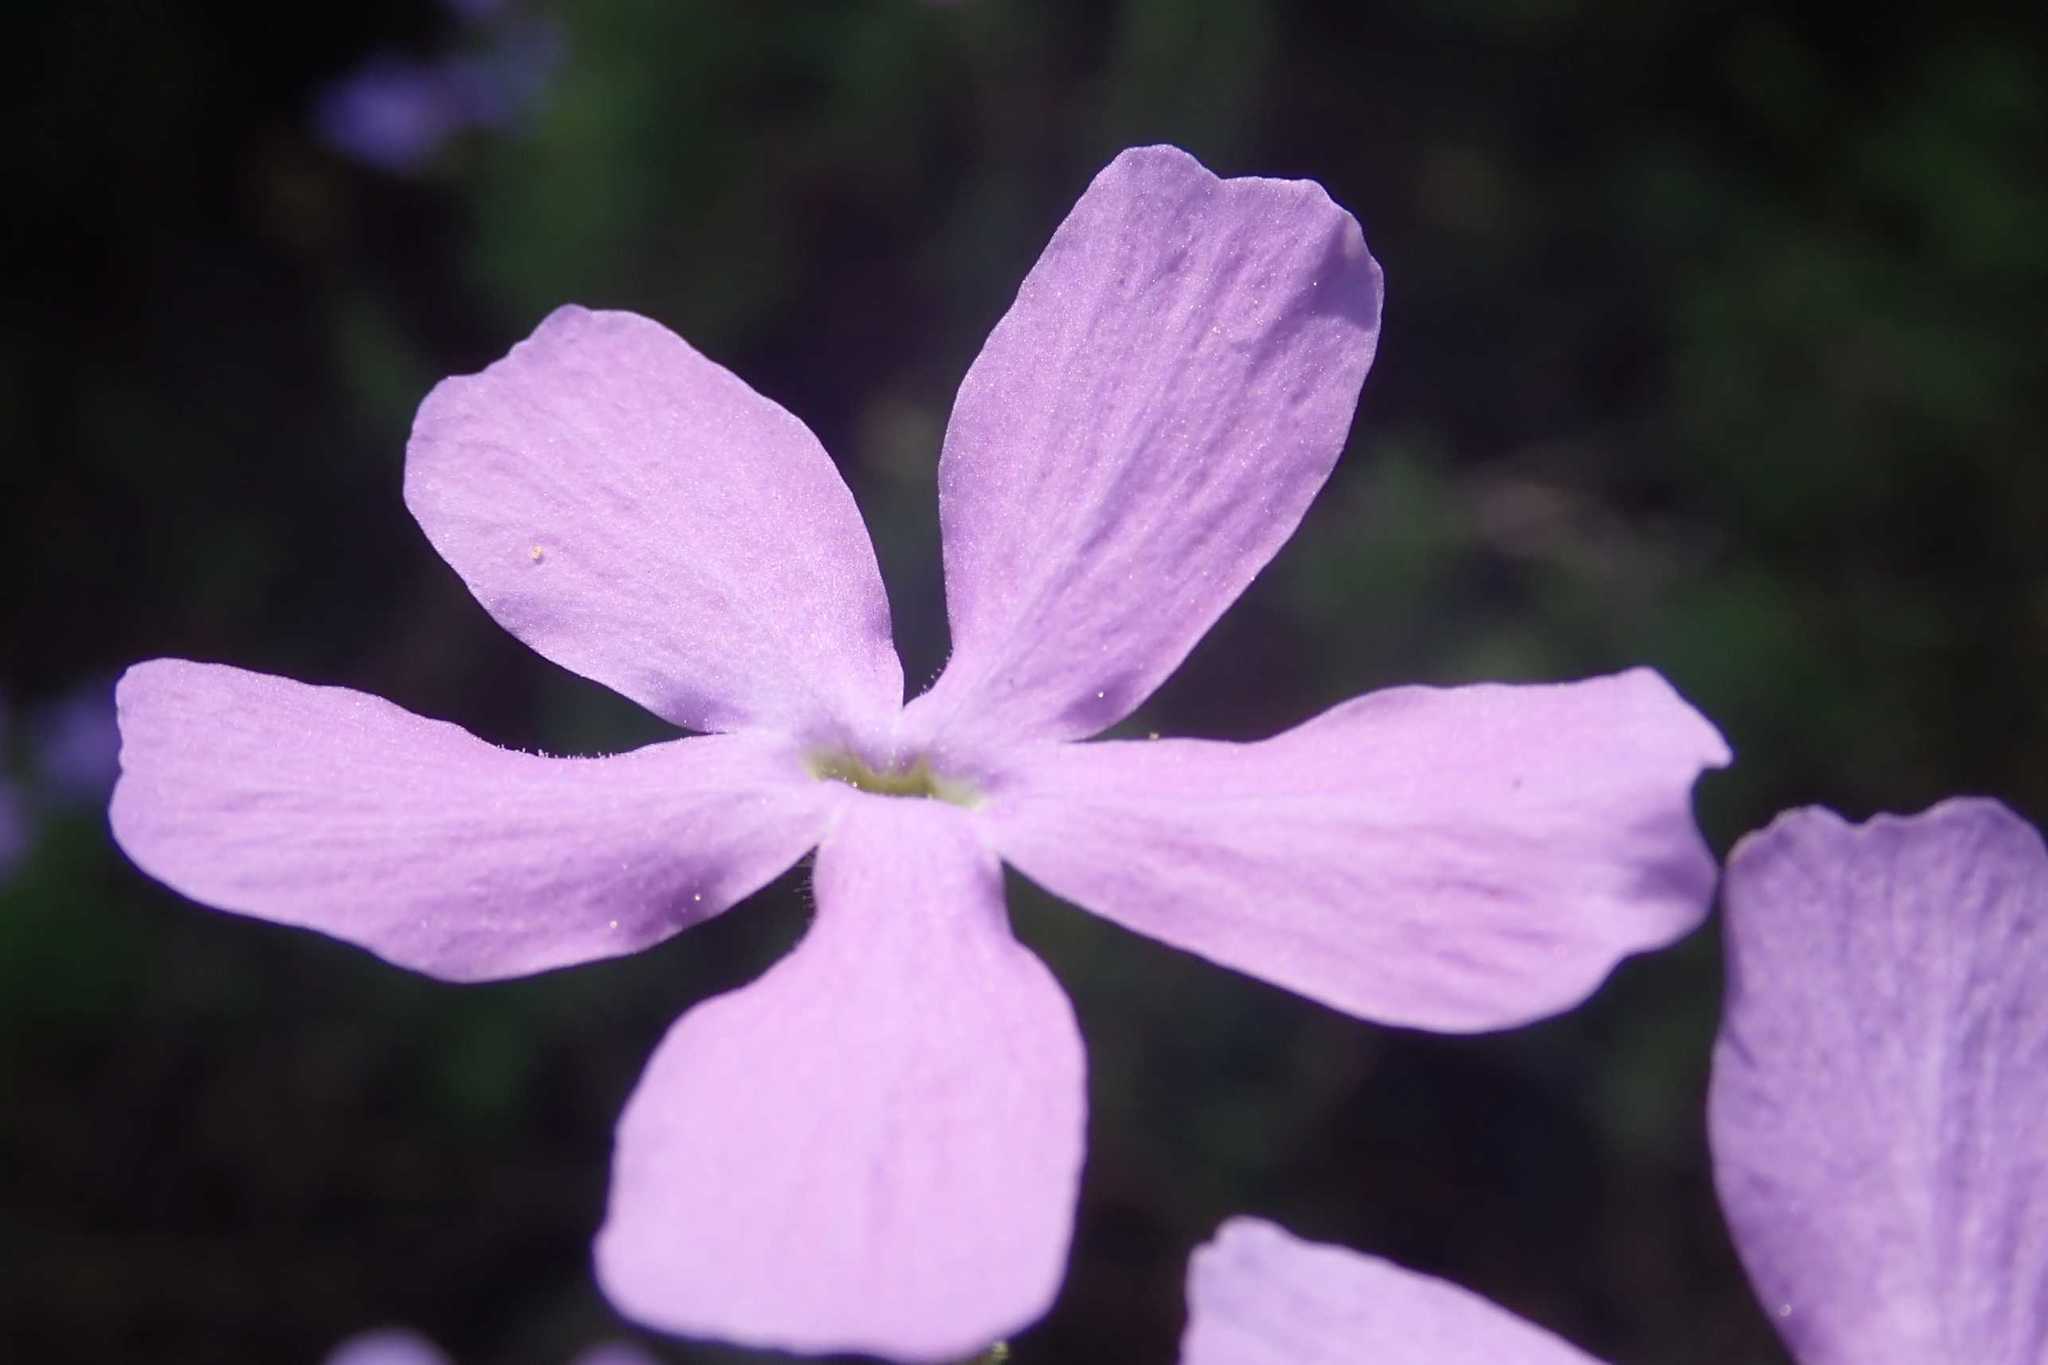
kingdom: Plantae
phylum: Tracheophyta
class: Magnoliopsida
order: Lamiales
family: Scrophulariaceae
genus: Jamesbrittenia
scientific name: Jamesbrittenia grandiflora
